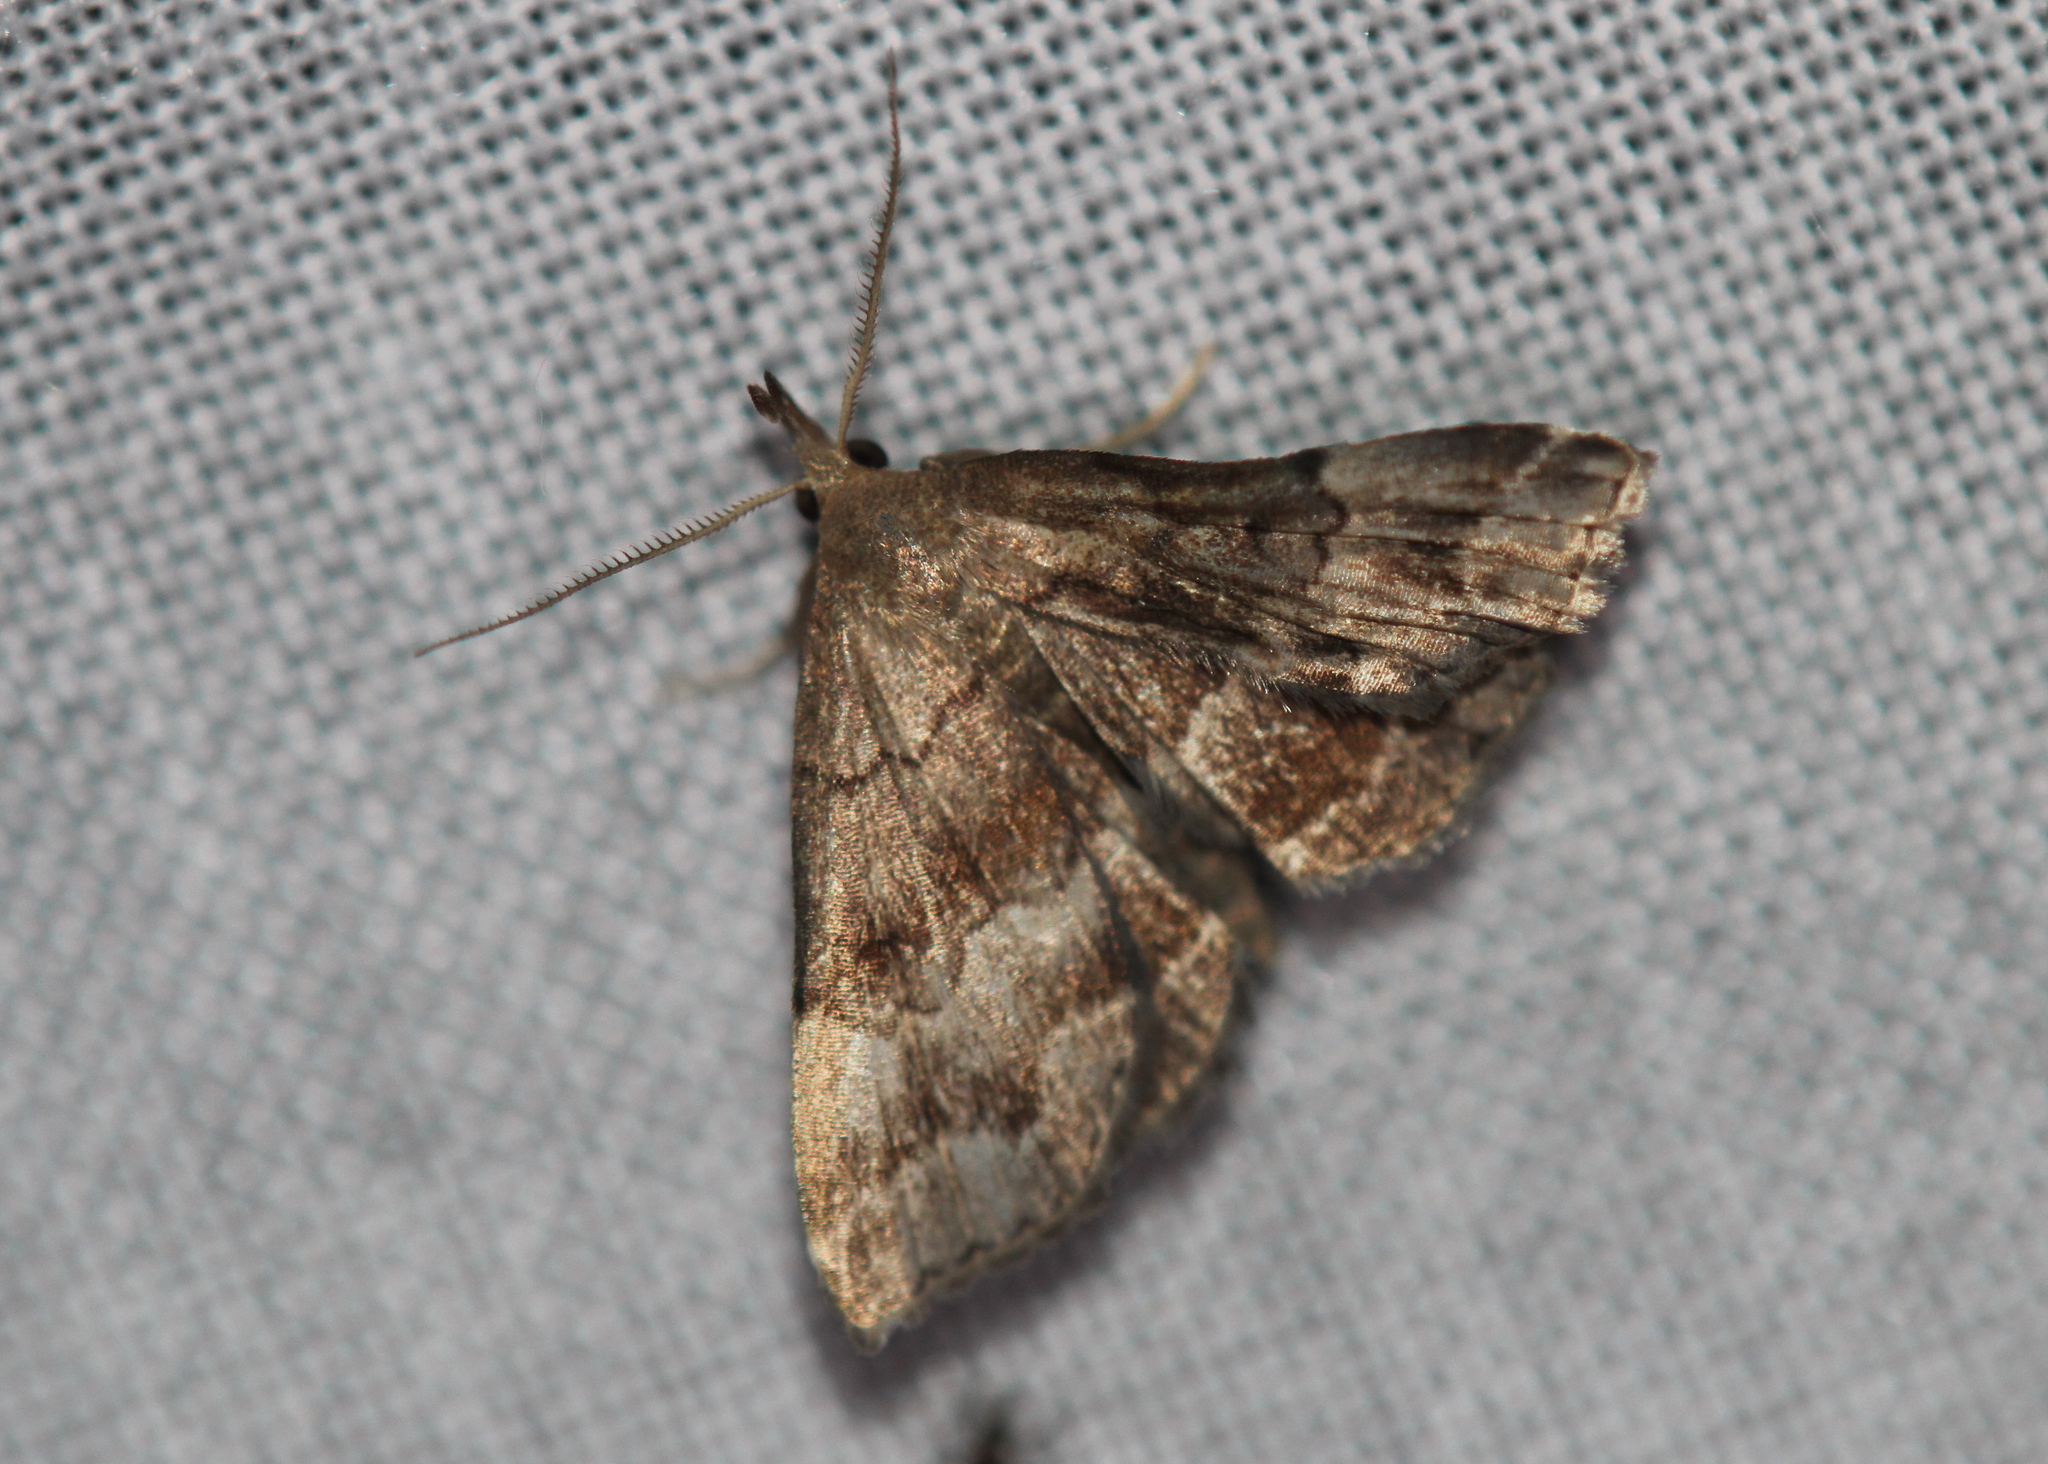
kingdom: Animalia
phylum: Arthropoda
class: Insecta
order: Lepidoptera
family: Erebidae
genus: Phalaenostola
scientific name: Phalaenostola larentioides
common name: Black-banded owlet
